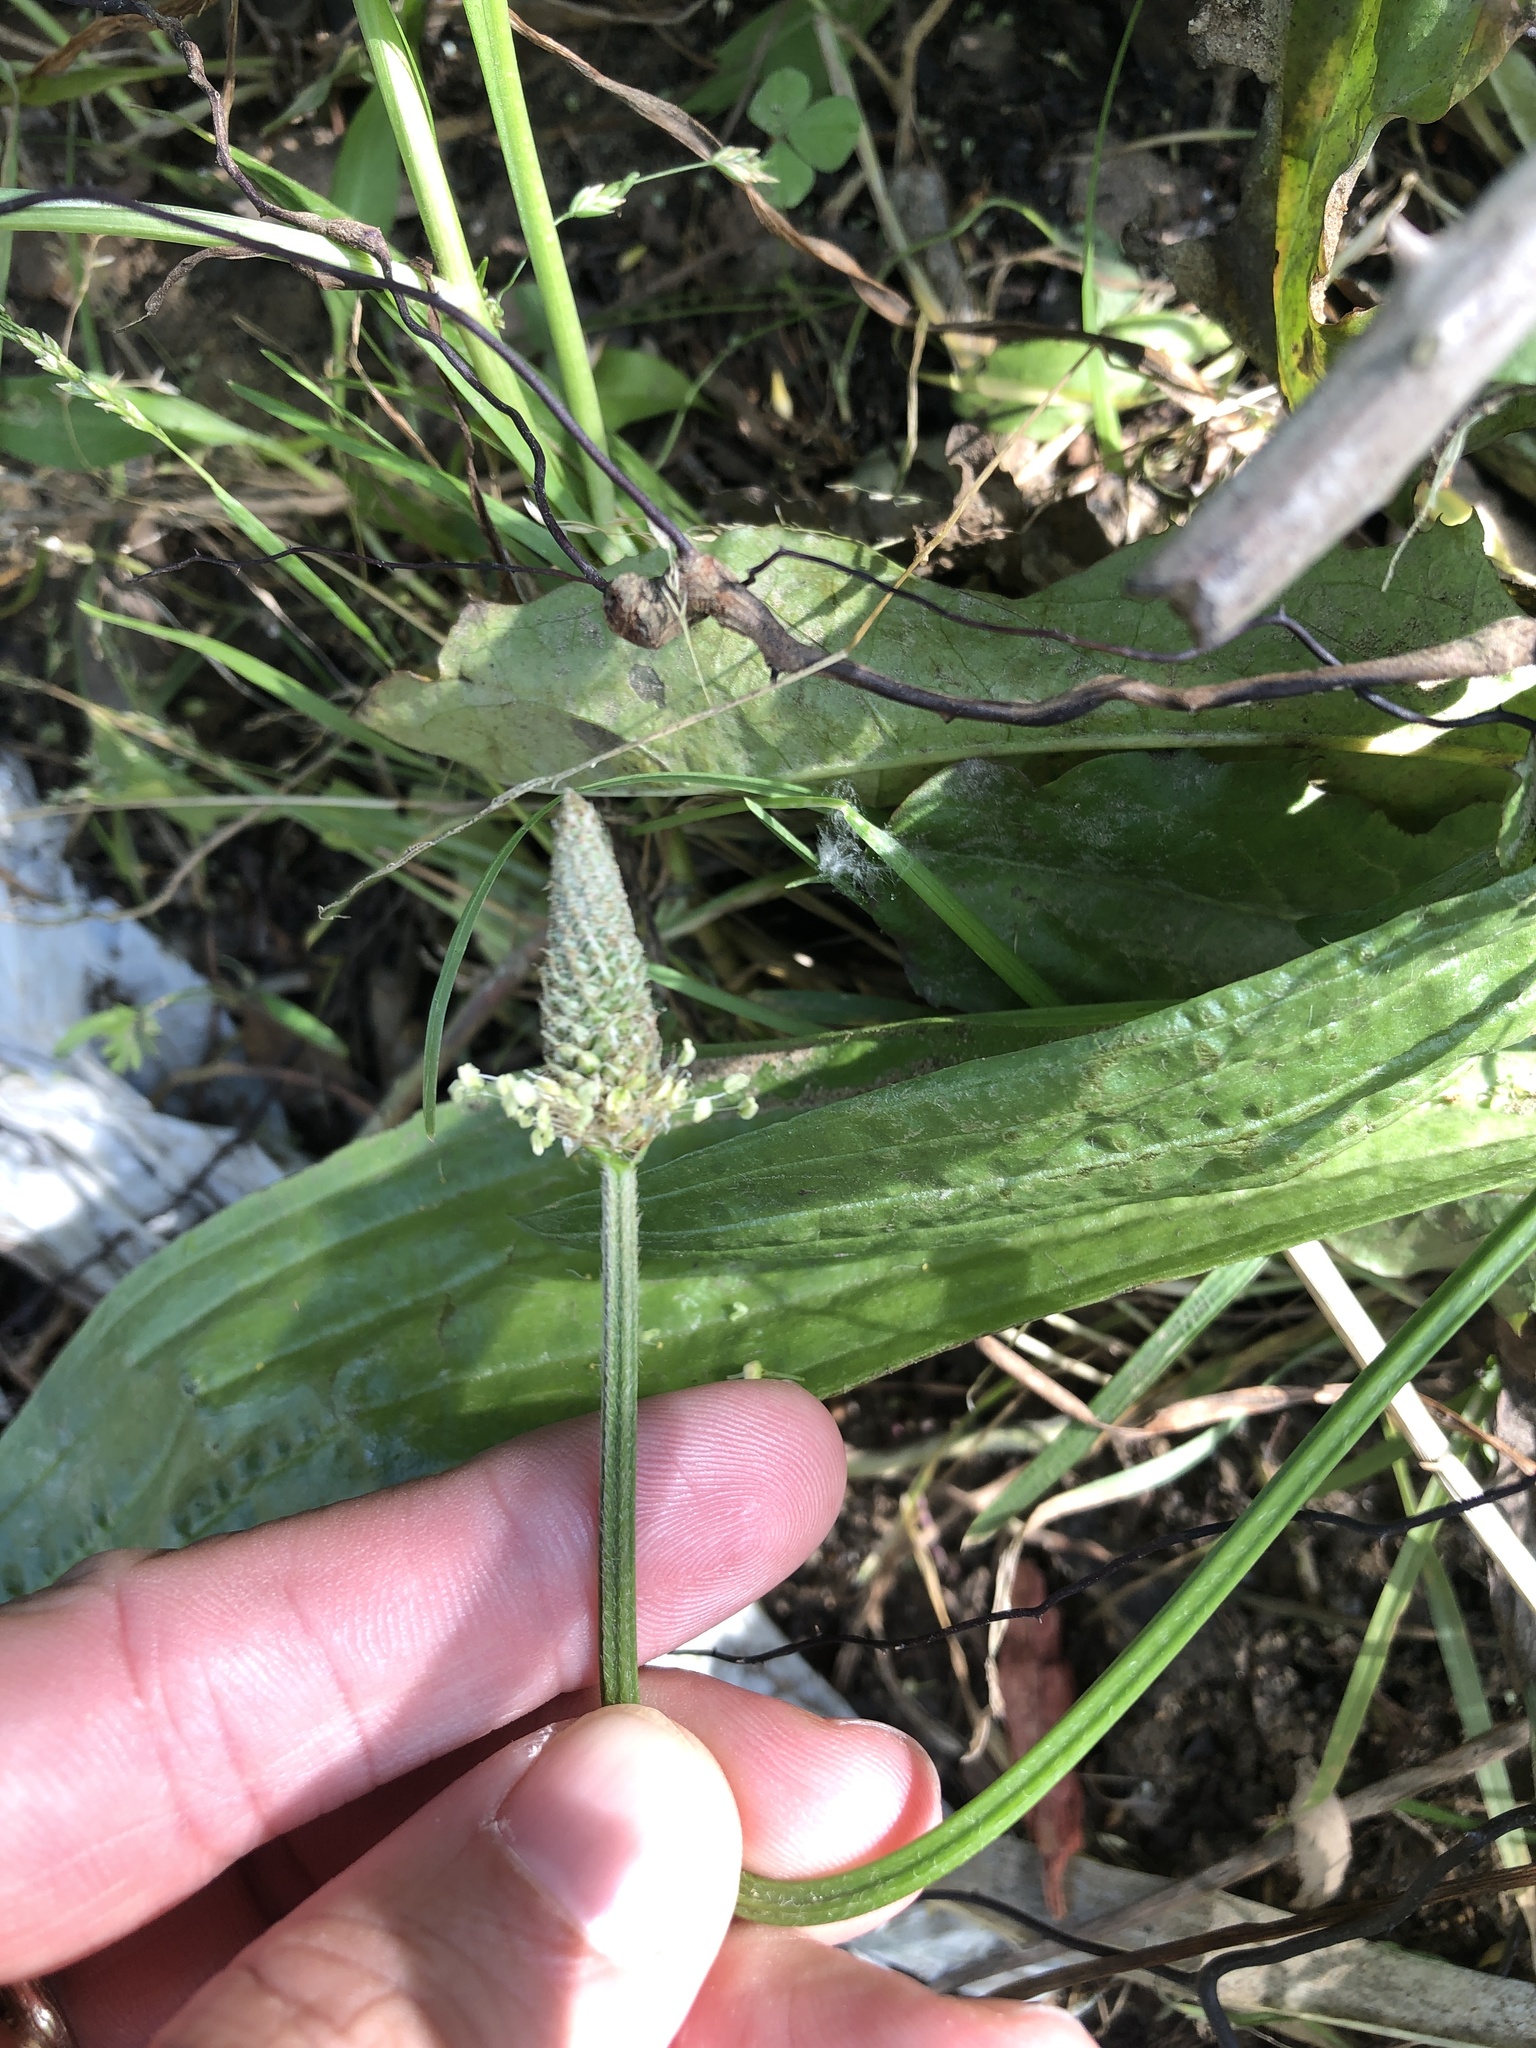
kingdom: Plantae
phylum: Tracheophyta
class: Magnoliopsida
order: Lamiales
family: Plantaginaceae
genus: Plantago
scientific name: Plantago lanceolata
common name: Ribwort plantain
